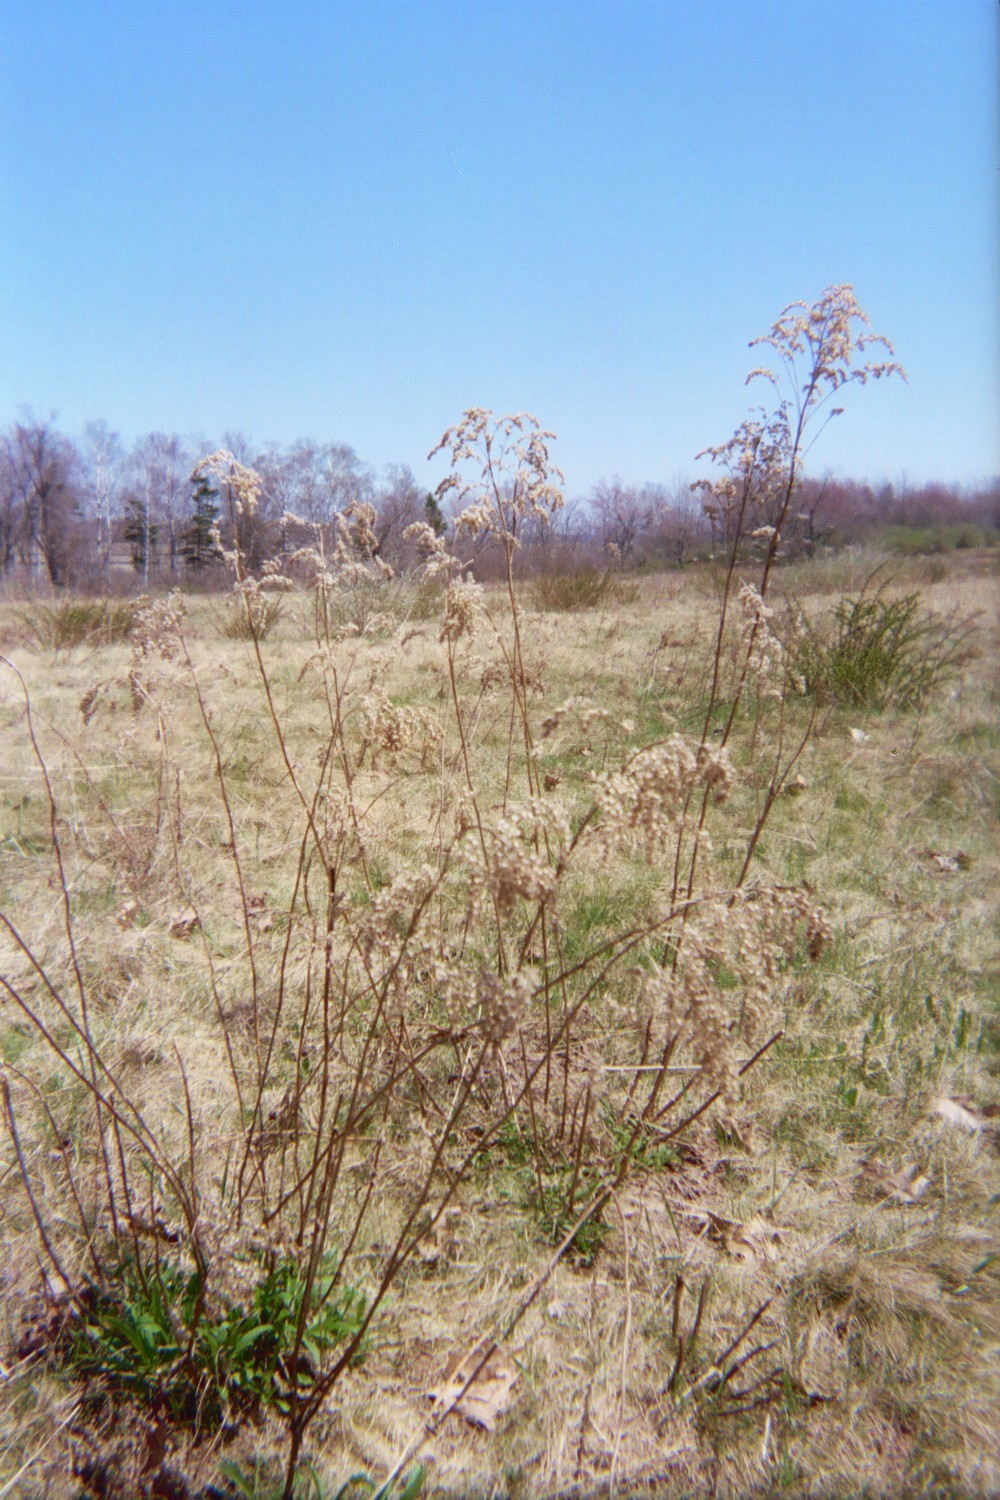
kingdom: Plantae
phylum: Tracheophyta
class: Magnoliopsida
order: Asterales
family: Asteraceae
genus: Solidago
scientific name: Solidago canadensis
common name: Canada goldenrod
